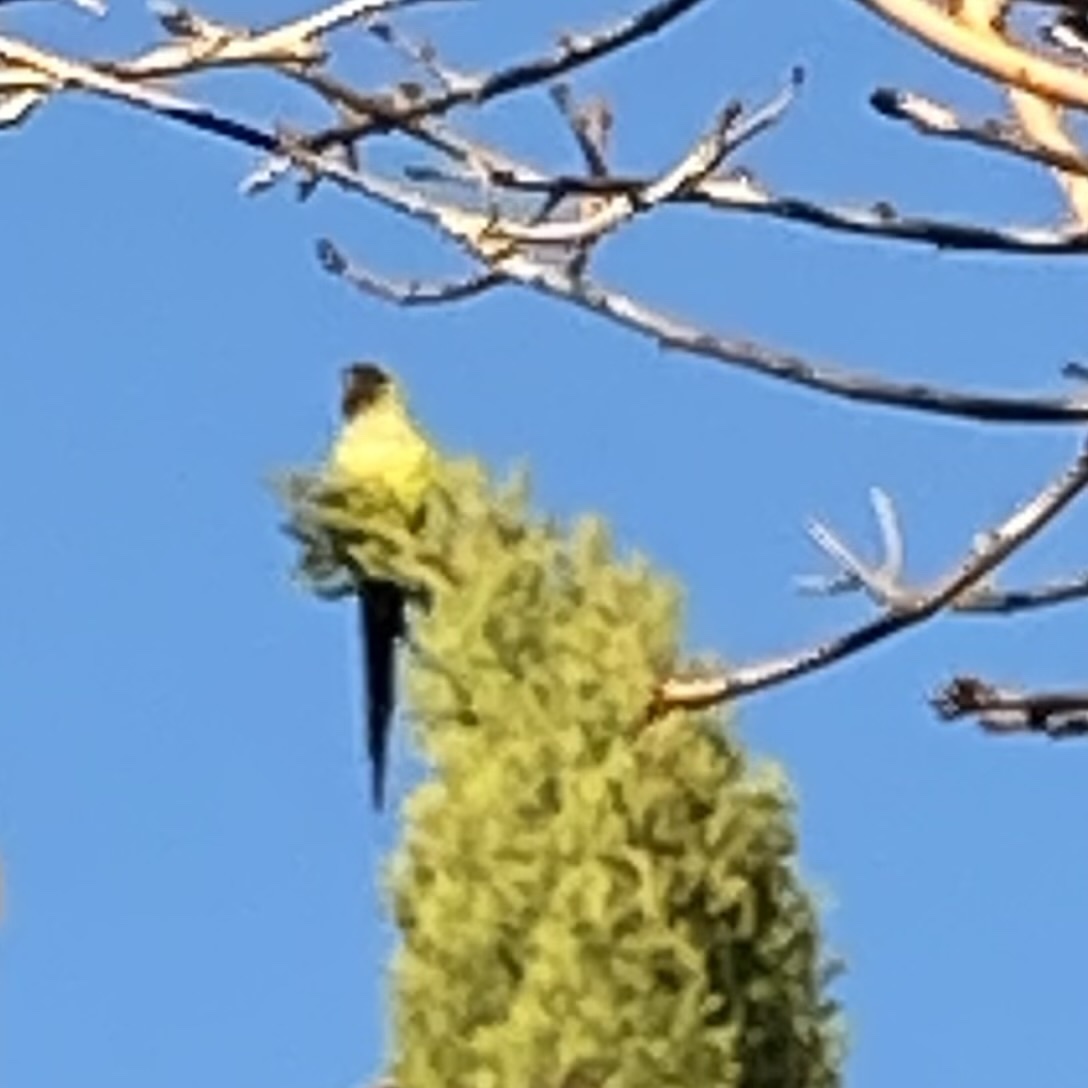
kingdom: Animalia
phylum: Chordata
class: Aves
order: Psittaciformes
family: Psittacidae
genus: Nandayus
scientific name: Nandayus nenday
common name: Nanday parakeet
